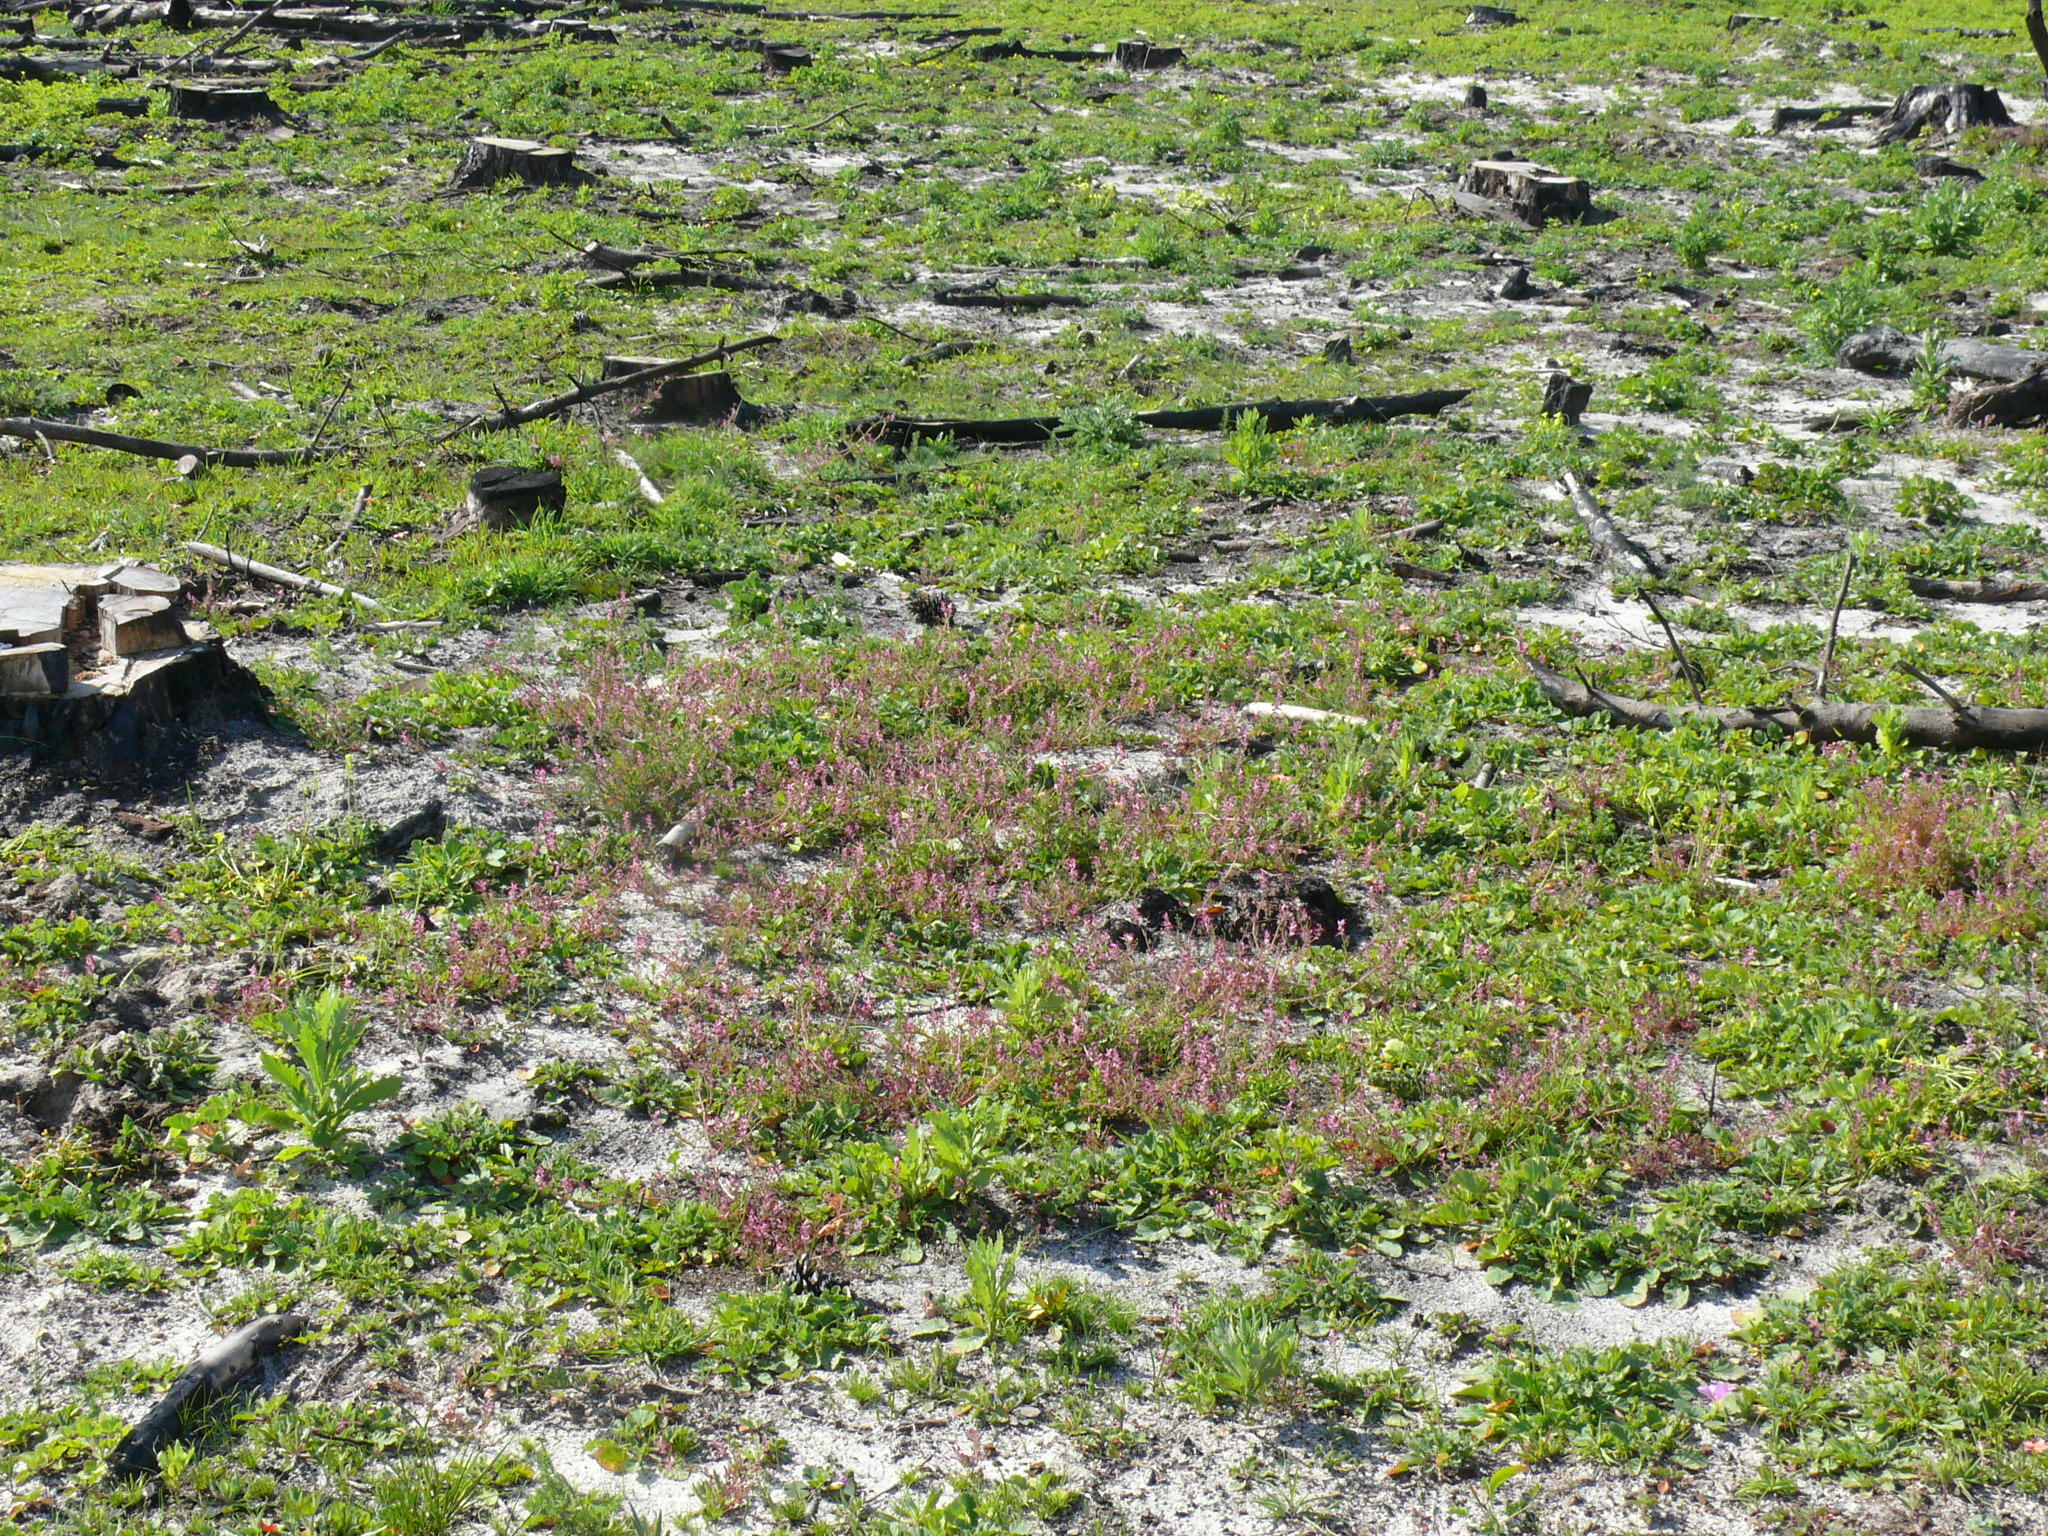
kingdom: Plantae
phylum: Tracheophyta
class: Magnoliopsida
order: Ranunculales
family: Papaveraceae
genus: Fumaria
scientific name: Fumaria muralis
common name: Common ramping-fumitory
